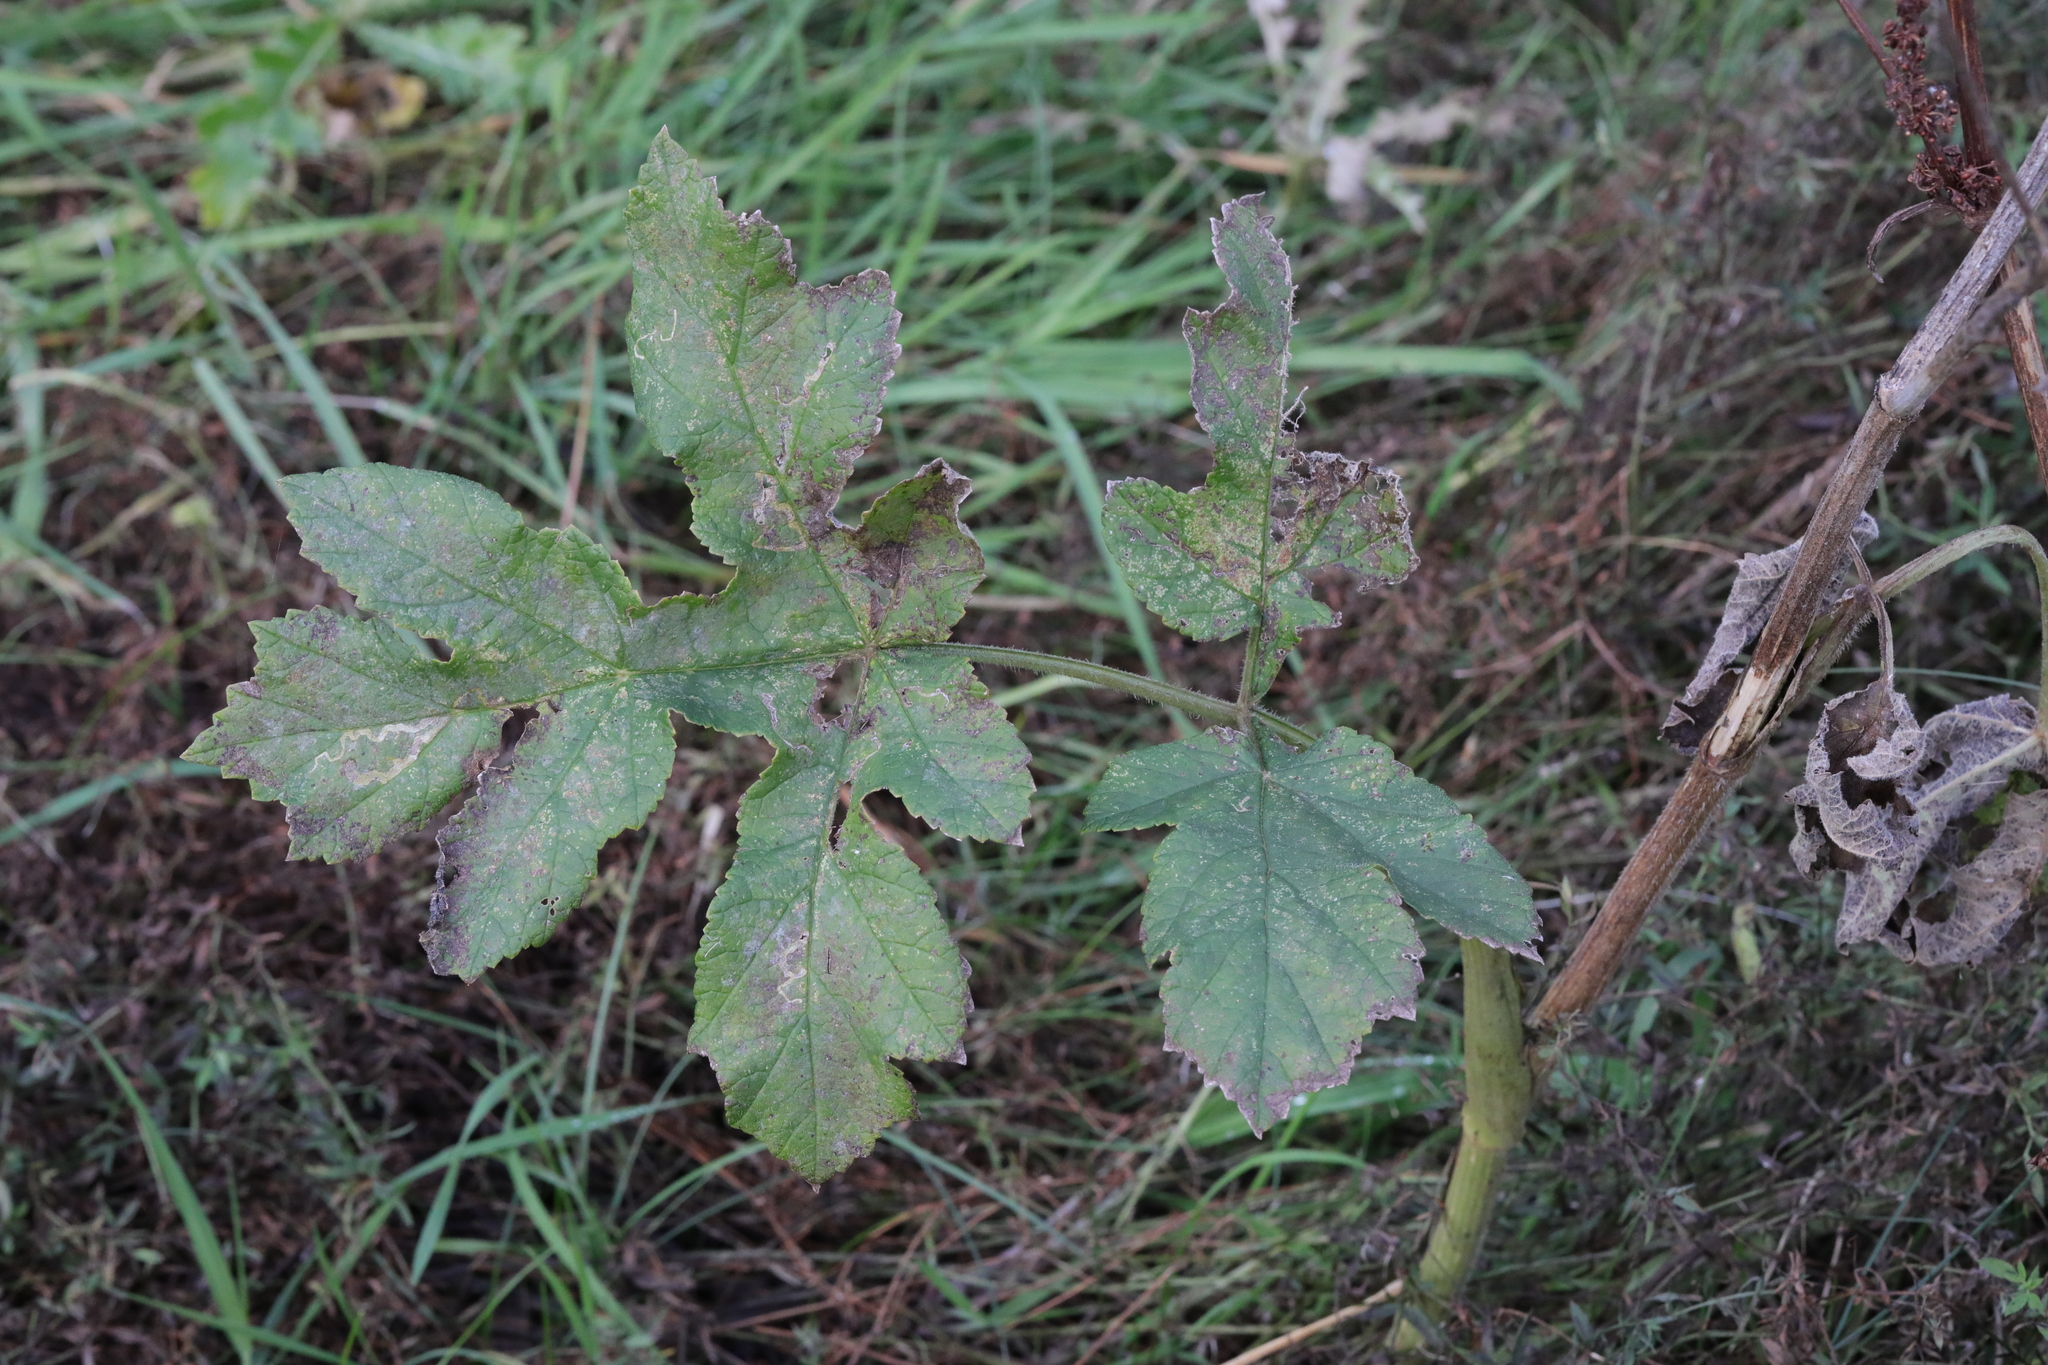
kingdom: Plantae
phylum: Tracheophyta
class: Magnoliopsida
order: Apiales
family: Apiaceae
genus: Heracleum
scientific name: Heracleum sphondylium
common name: Hogweed
